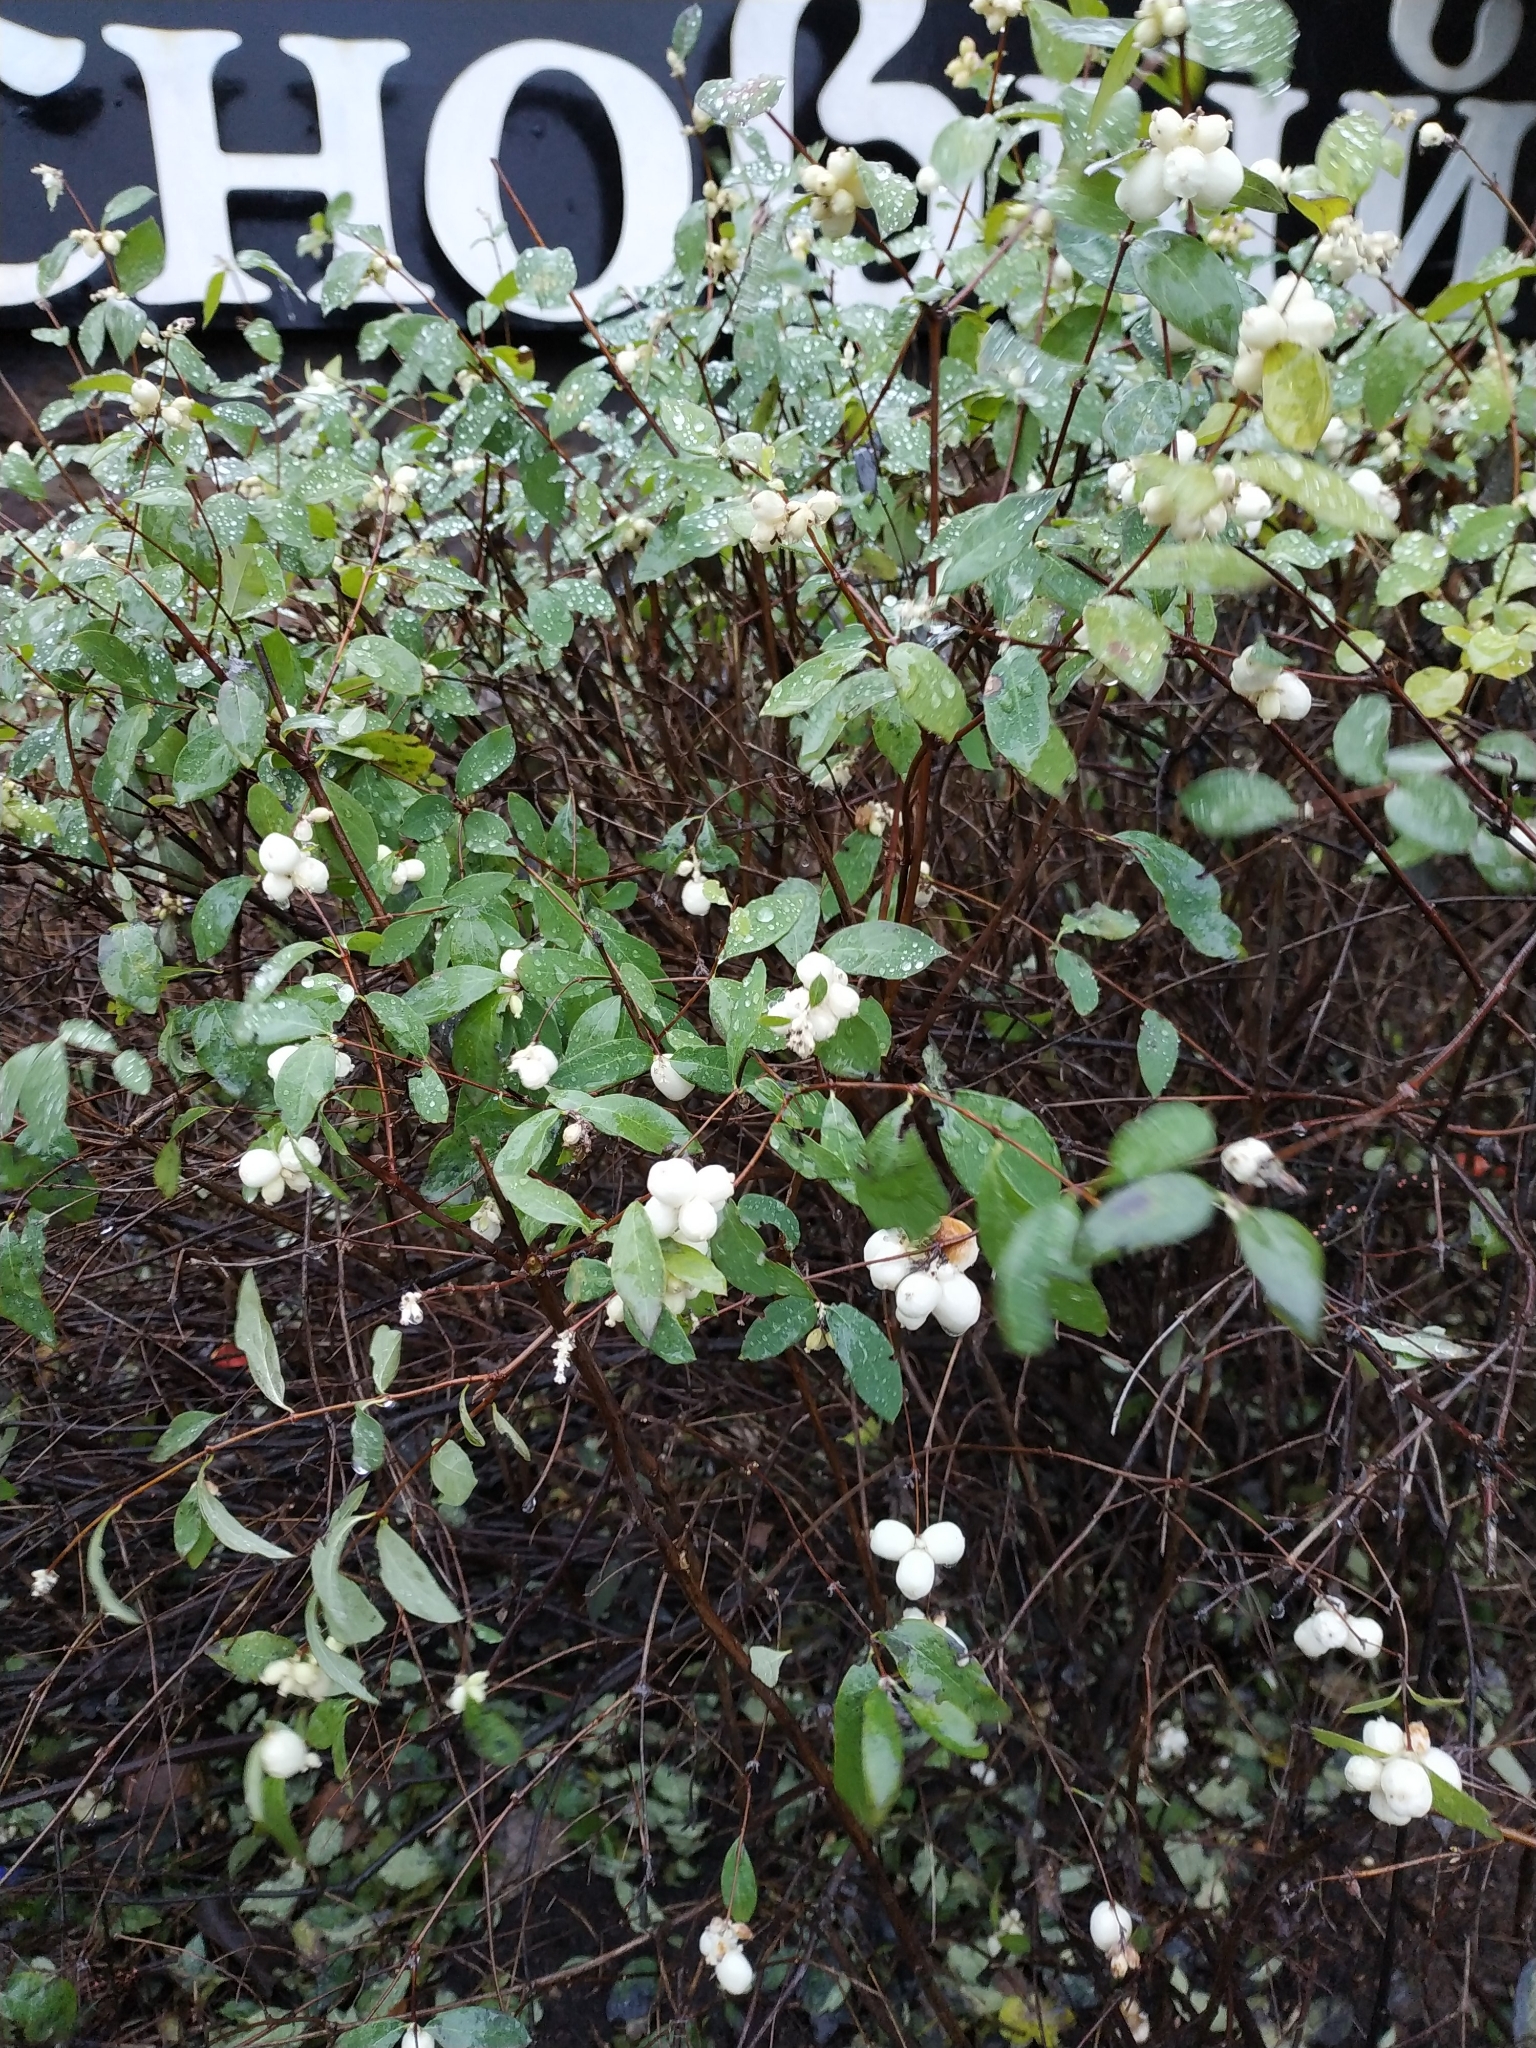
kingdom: Plantae
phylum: Tracheophyta
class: Magnoliopsida
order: Dipsacales
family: Caprifoliaceae
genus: Symphoricarpos
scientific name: Symphoricarpos albus
